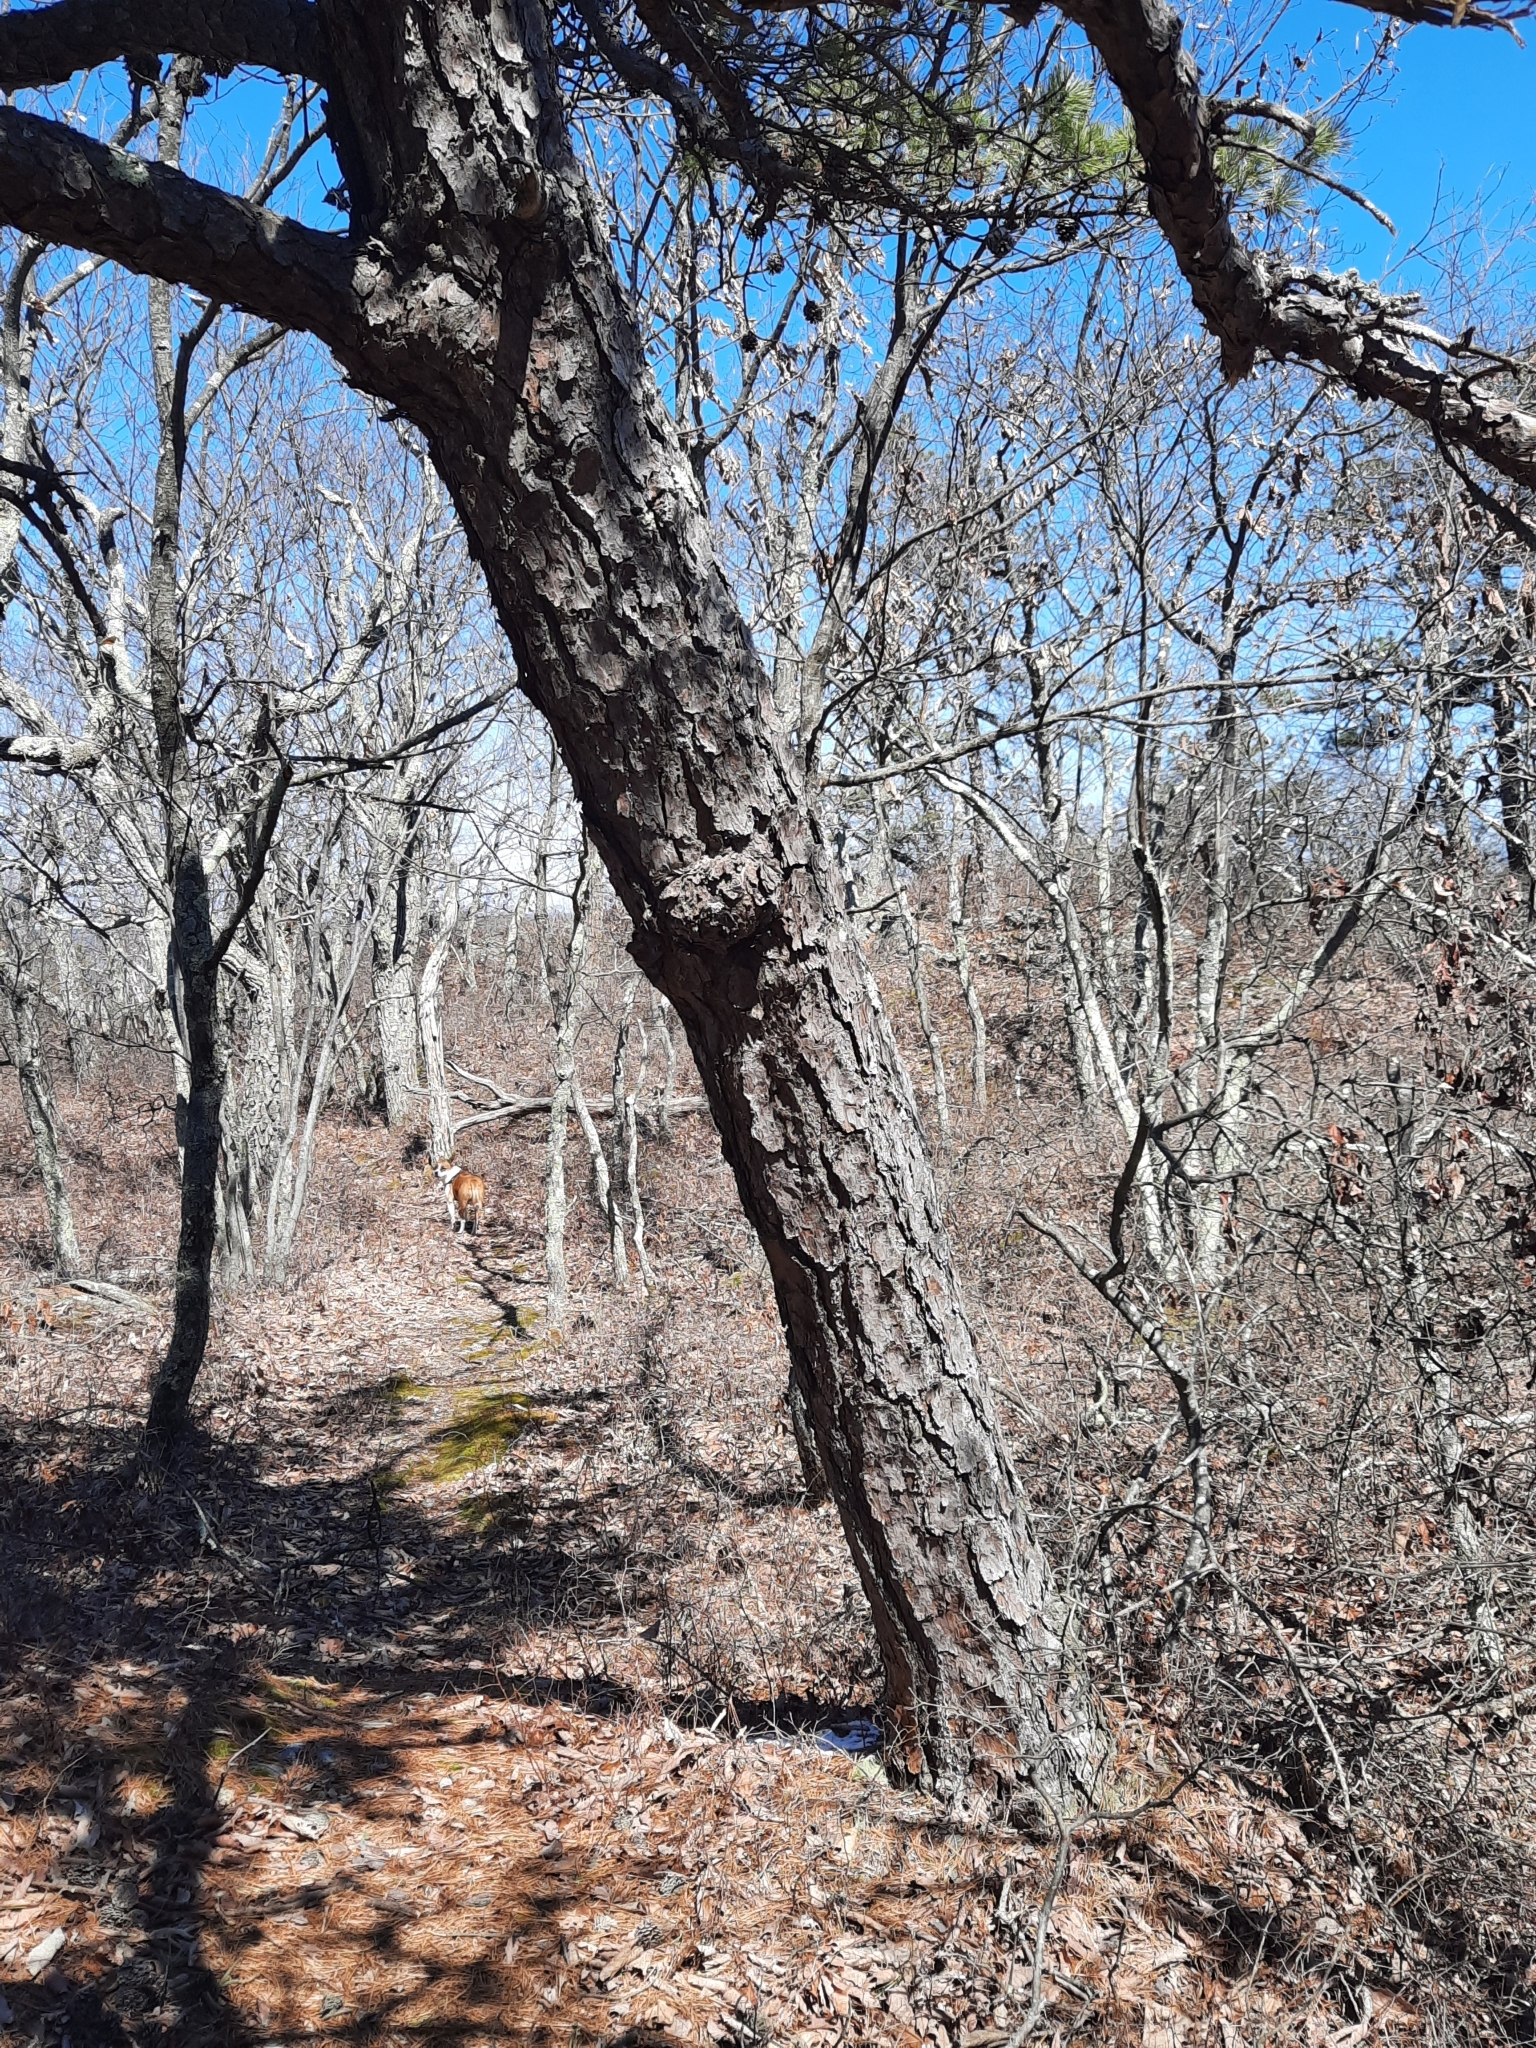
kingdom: Plantae
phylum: Tracheophyta
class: Pinopsida
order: Pinales
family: Pinaceae
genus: Pinus
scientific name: Pinus rigida
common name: Pitch pine
